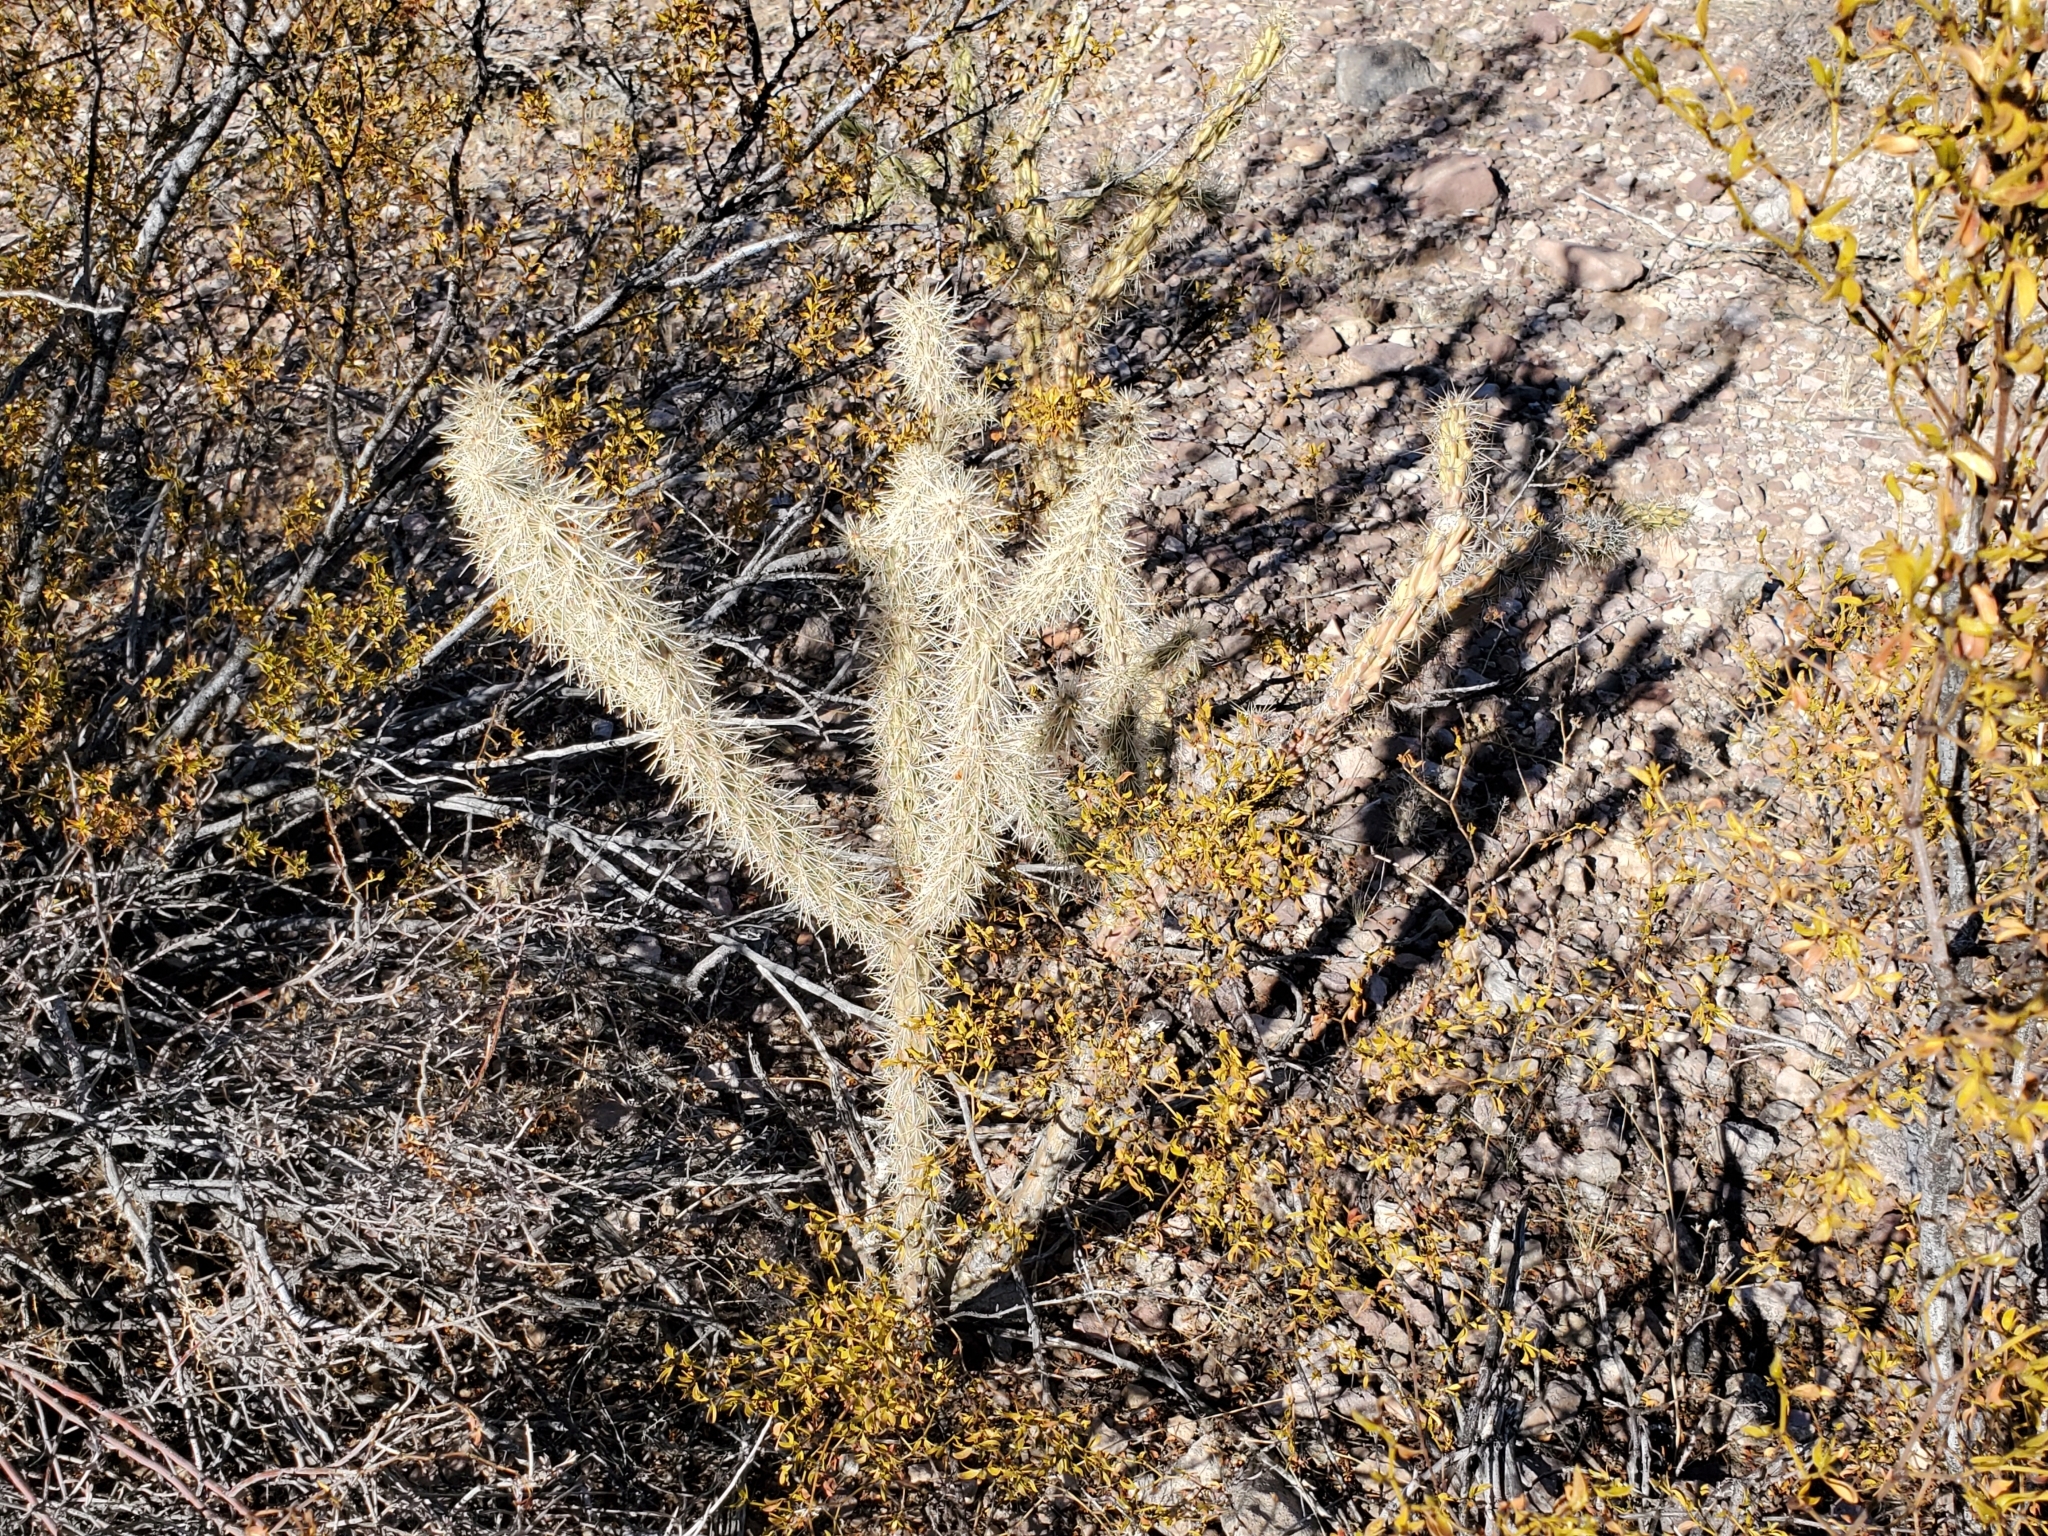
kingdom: Plantae
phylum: Tracheophyta
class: Magnoliopsida
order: Caryophyllales
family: Cactaceae
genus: Cylindropuntia
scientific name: Cylindropuntia acanthocarpa
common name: Buckhorn cholla
